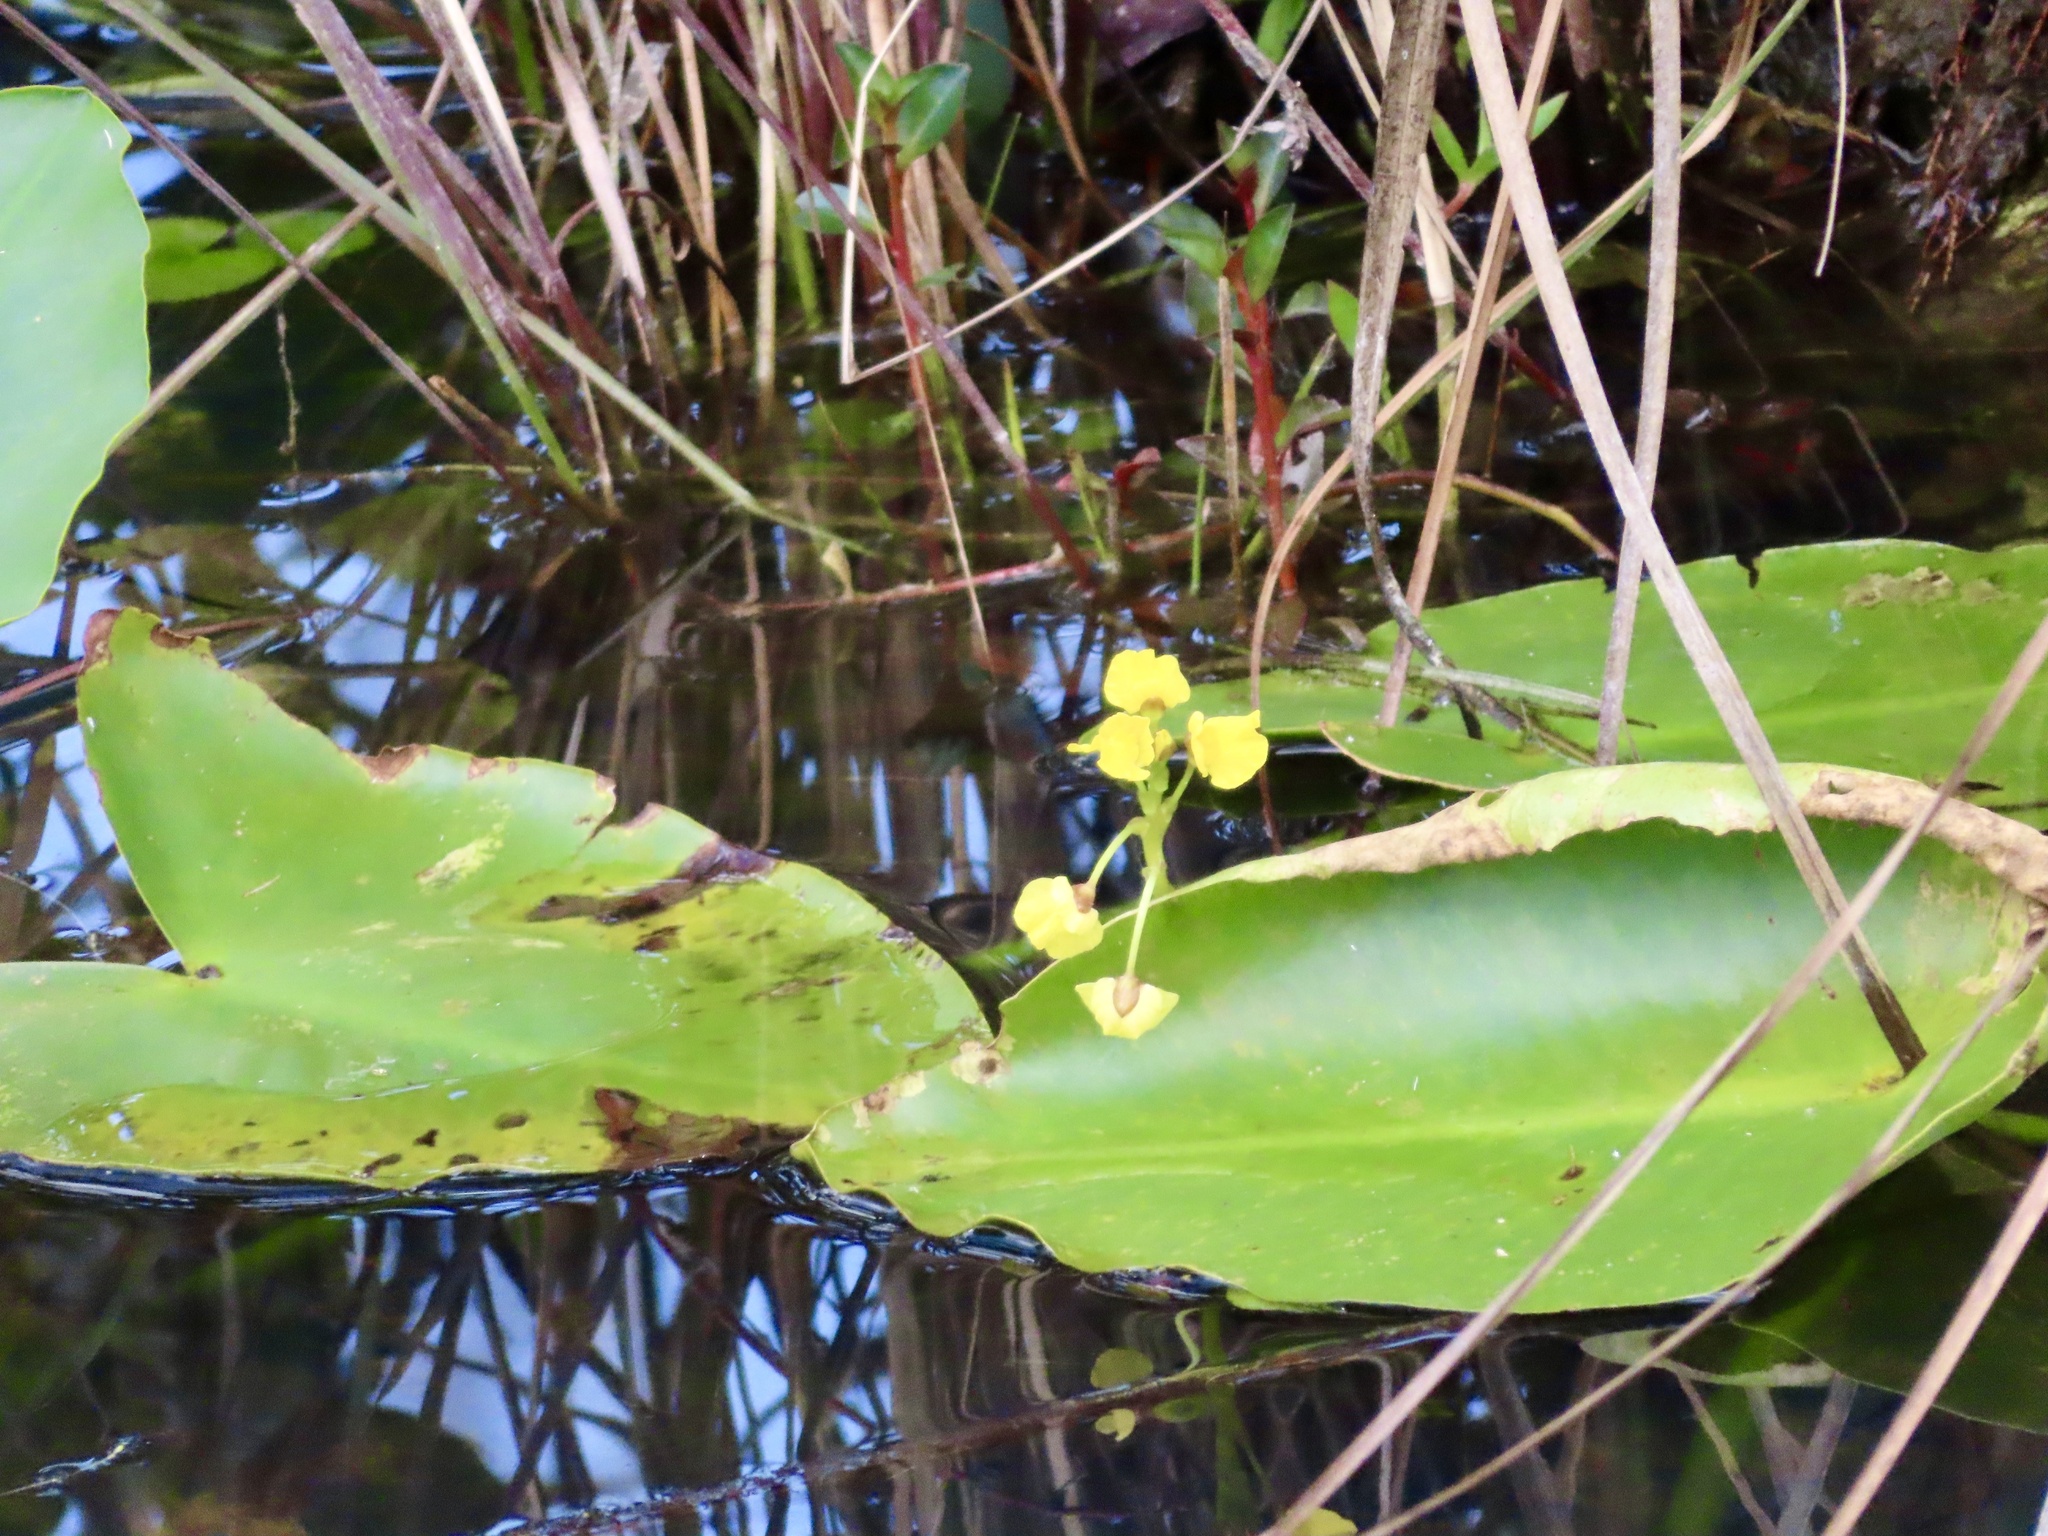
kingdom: Plantae
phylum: Tracheophyta
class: Magnoliopsida
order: Lamiales
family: Lentibulariaceae
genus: Utricularia
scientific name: Utricularia foliosa
